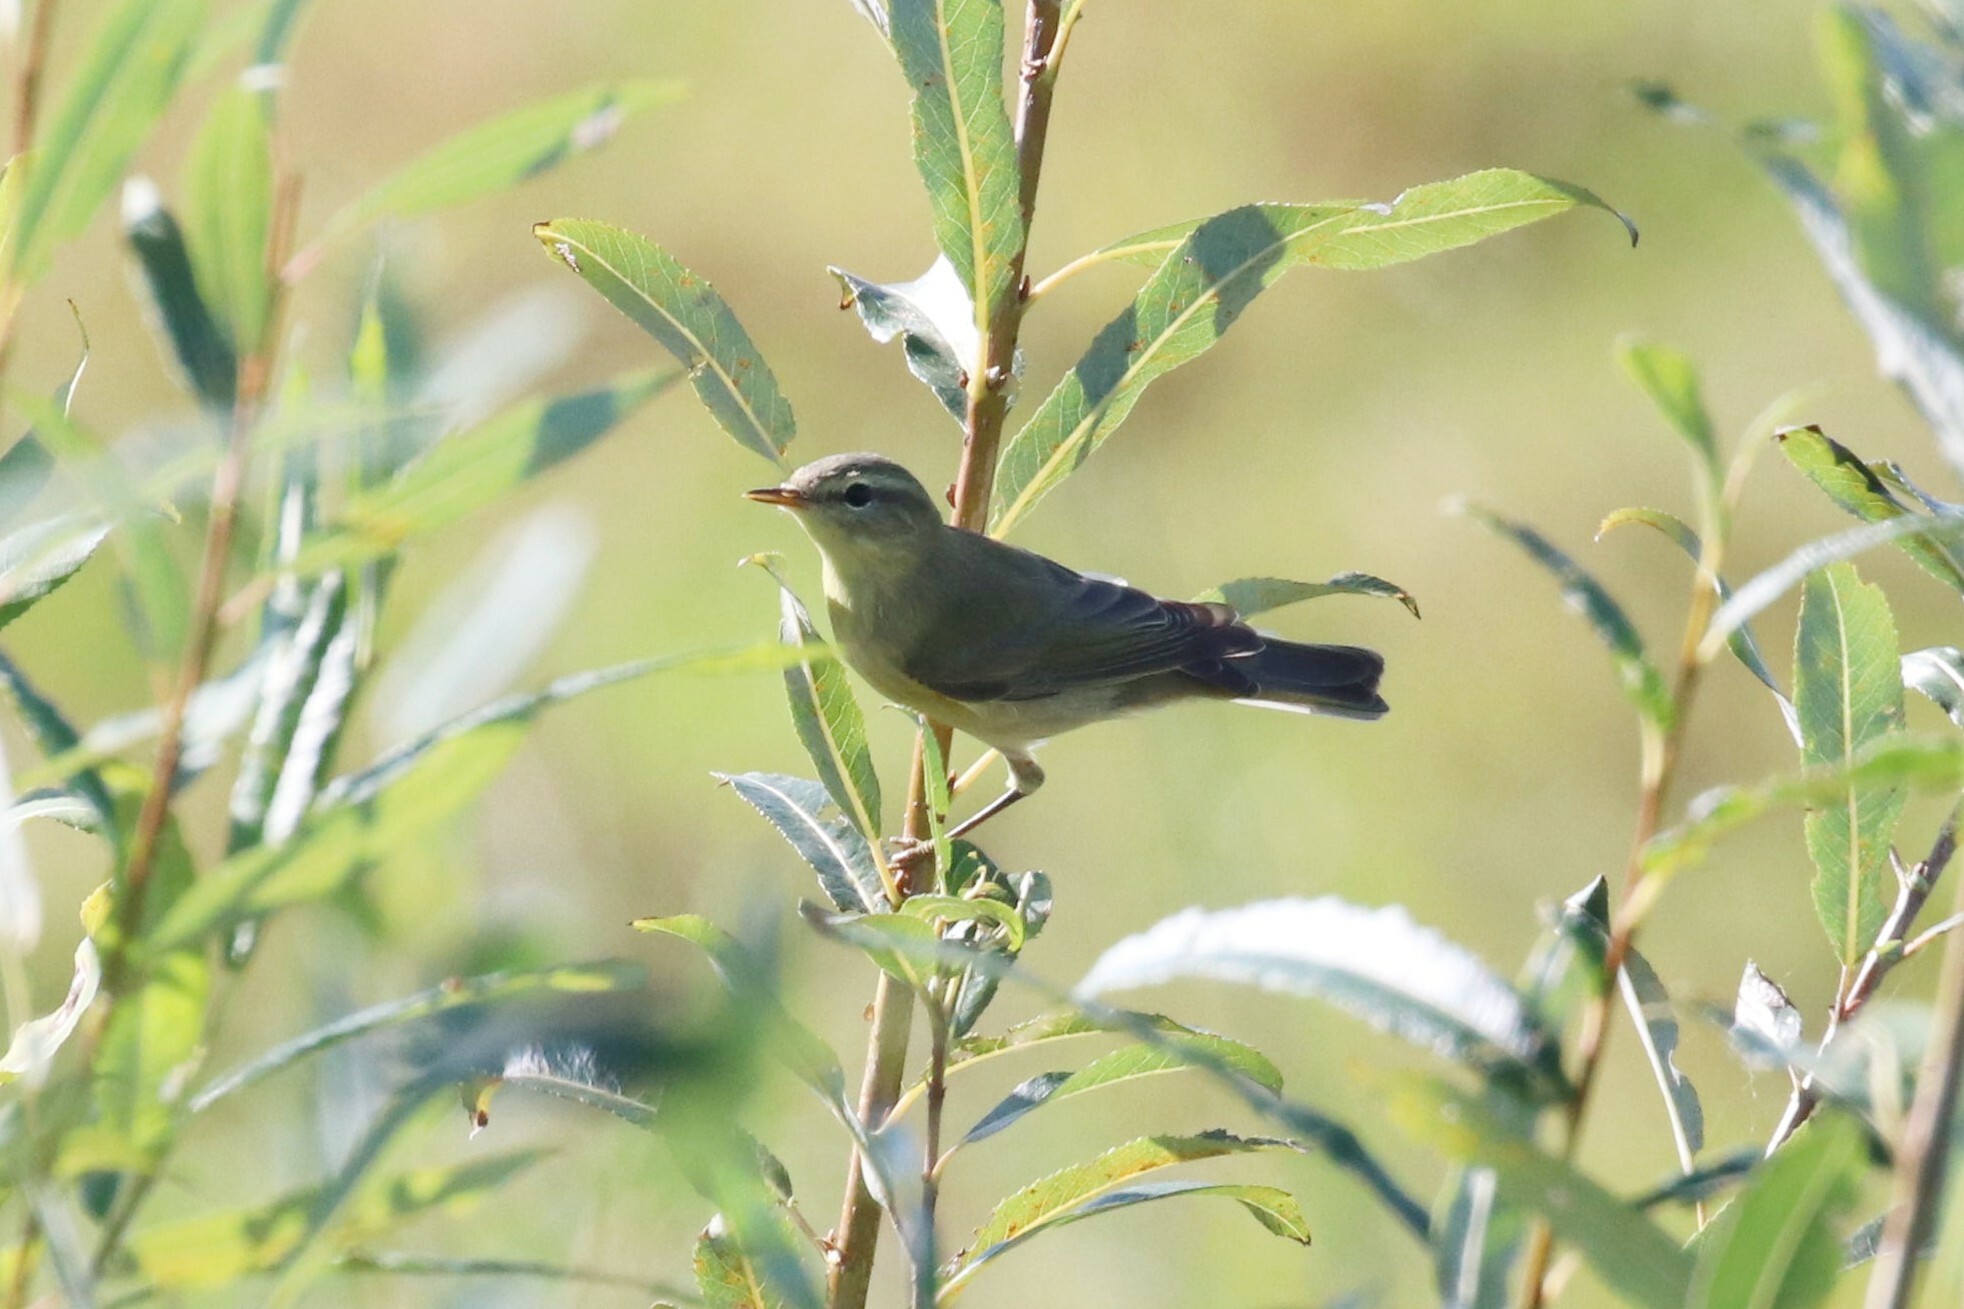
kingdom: Animalia
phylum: Chordata
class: Aves
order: Passeriformes
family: Phylloscopidae
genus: Phylloscopus
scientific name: Phylloscopus trochilus
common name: Willow warbler
